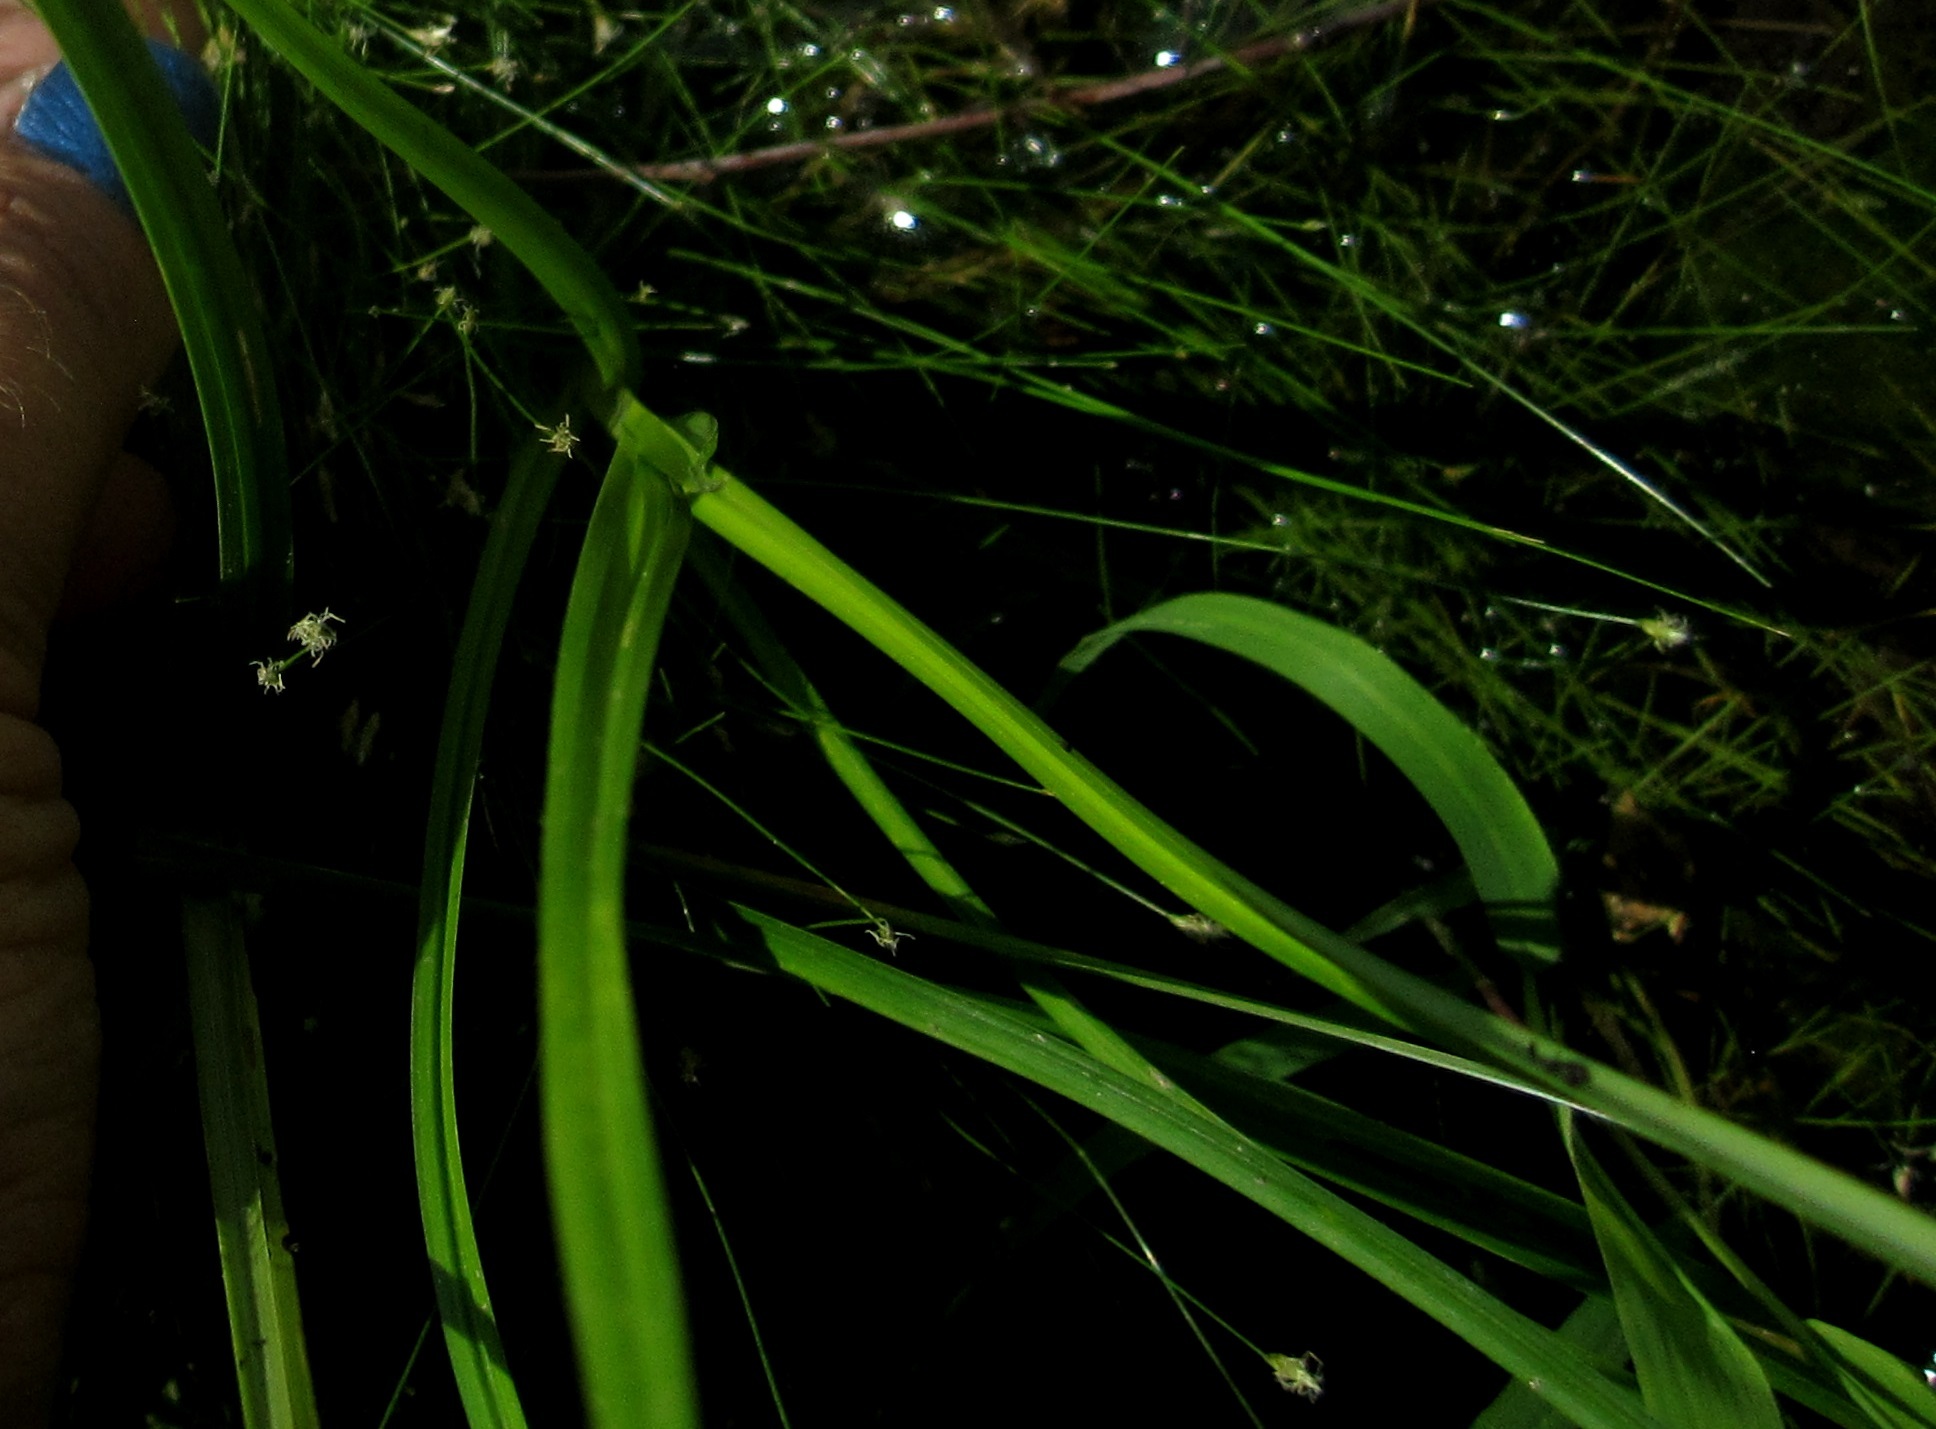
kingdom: Plantae
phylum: Tracheophyta
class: Liliopsida
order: Poales
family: Cyperaceae
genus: Eleocharis
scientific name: Eleocharis acicularis
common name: Needle spike-rush
